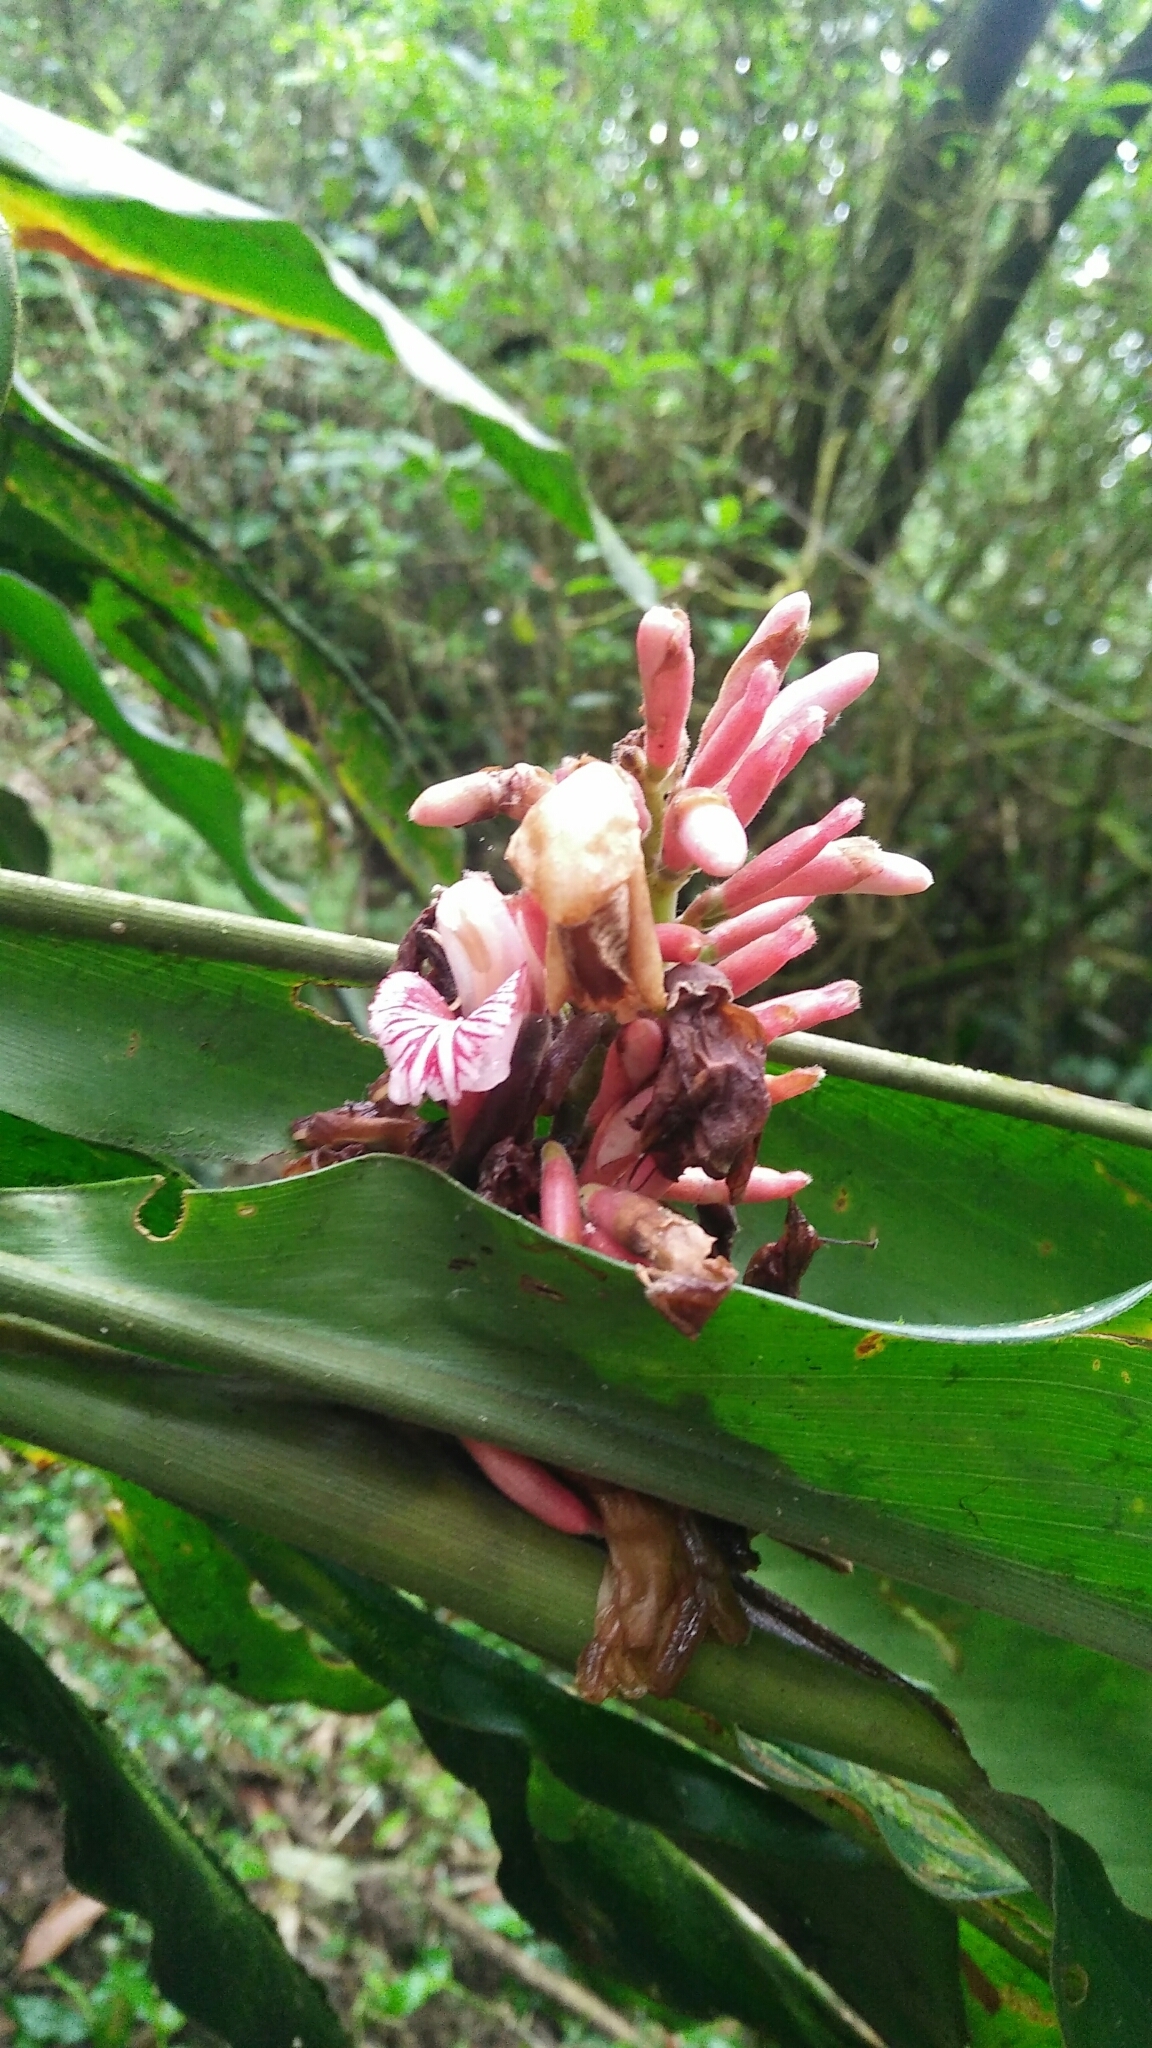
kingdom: Plantae
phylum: Tracheophyta
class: Liliopsida
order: Zingiberales
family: Zingiberaceae
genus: Alpinia
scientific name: Alpinia ilanensis
